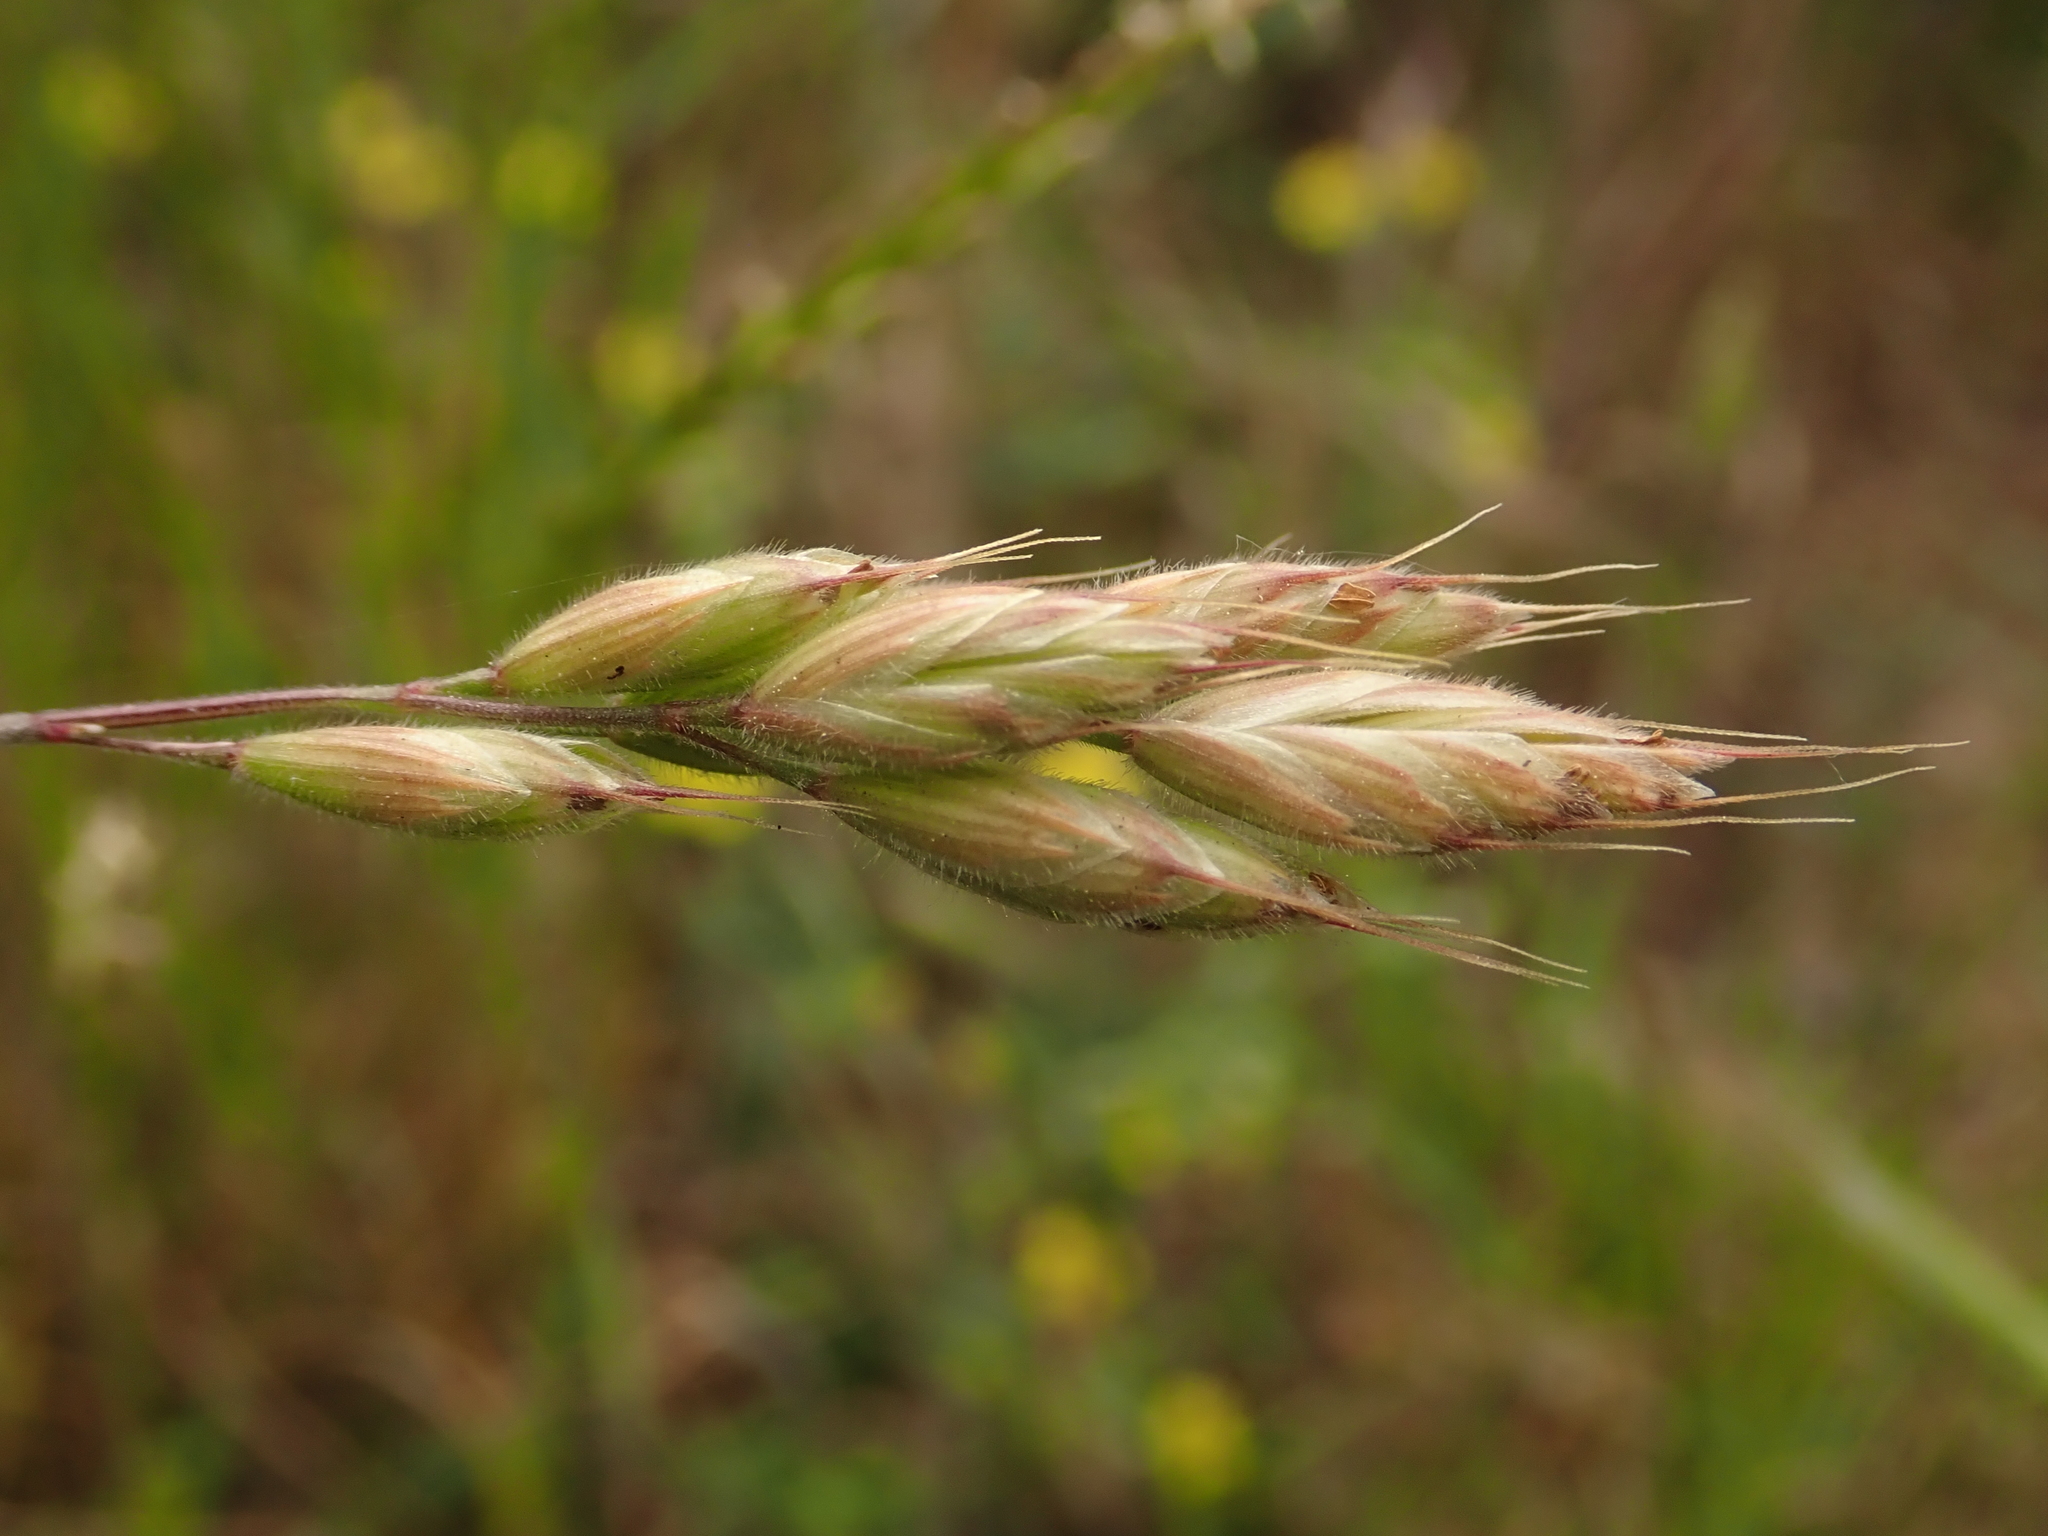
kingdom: Plantae
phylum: Tracheophyta
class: Liliopsida
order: Poales
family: Poaceae
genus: Bromus
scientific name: Bromus hordeaceus
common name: Soft brome
